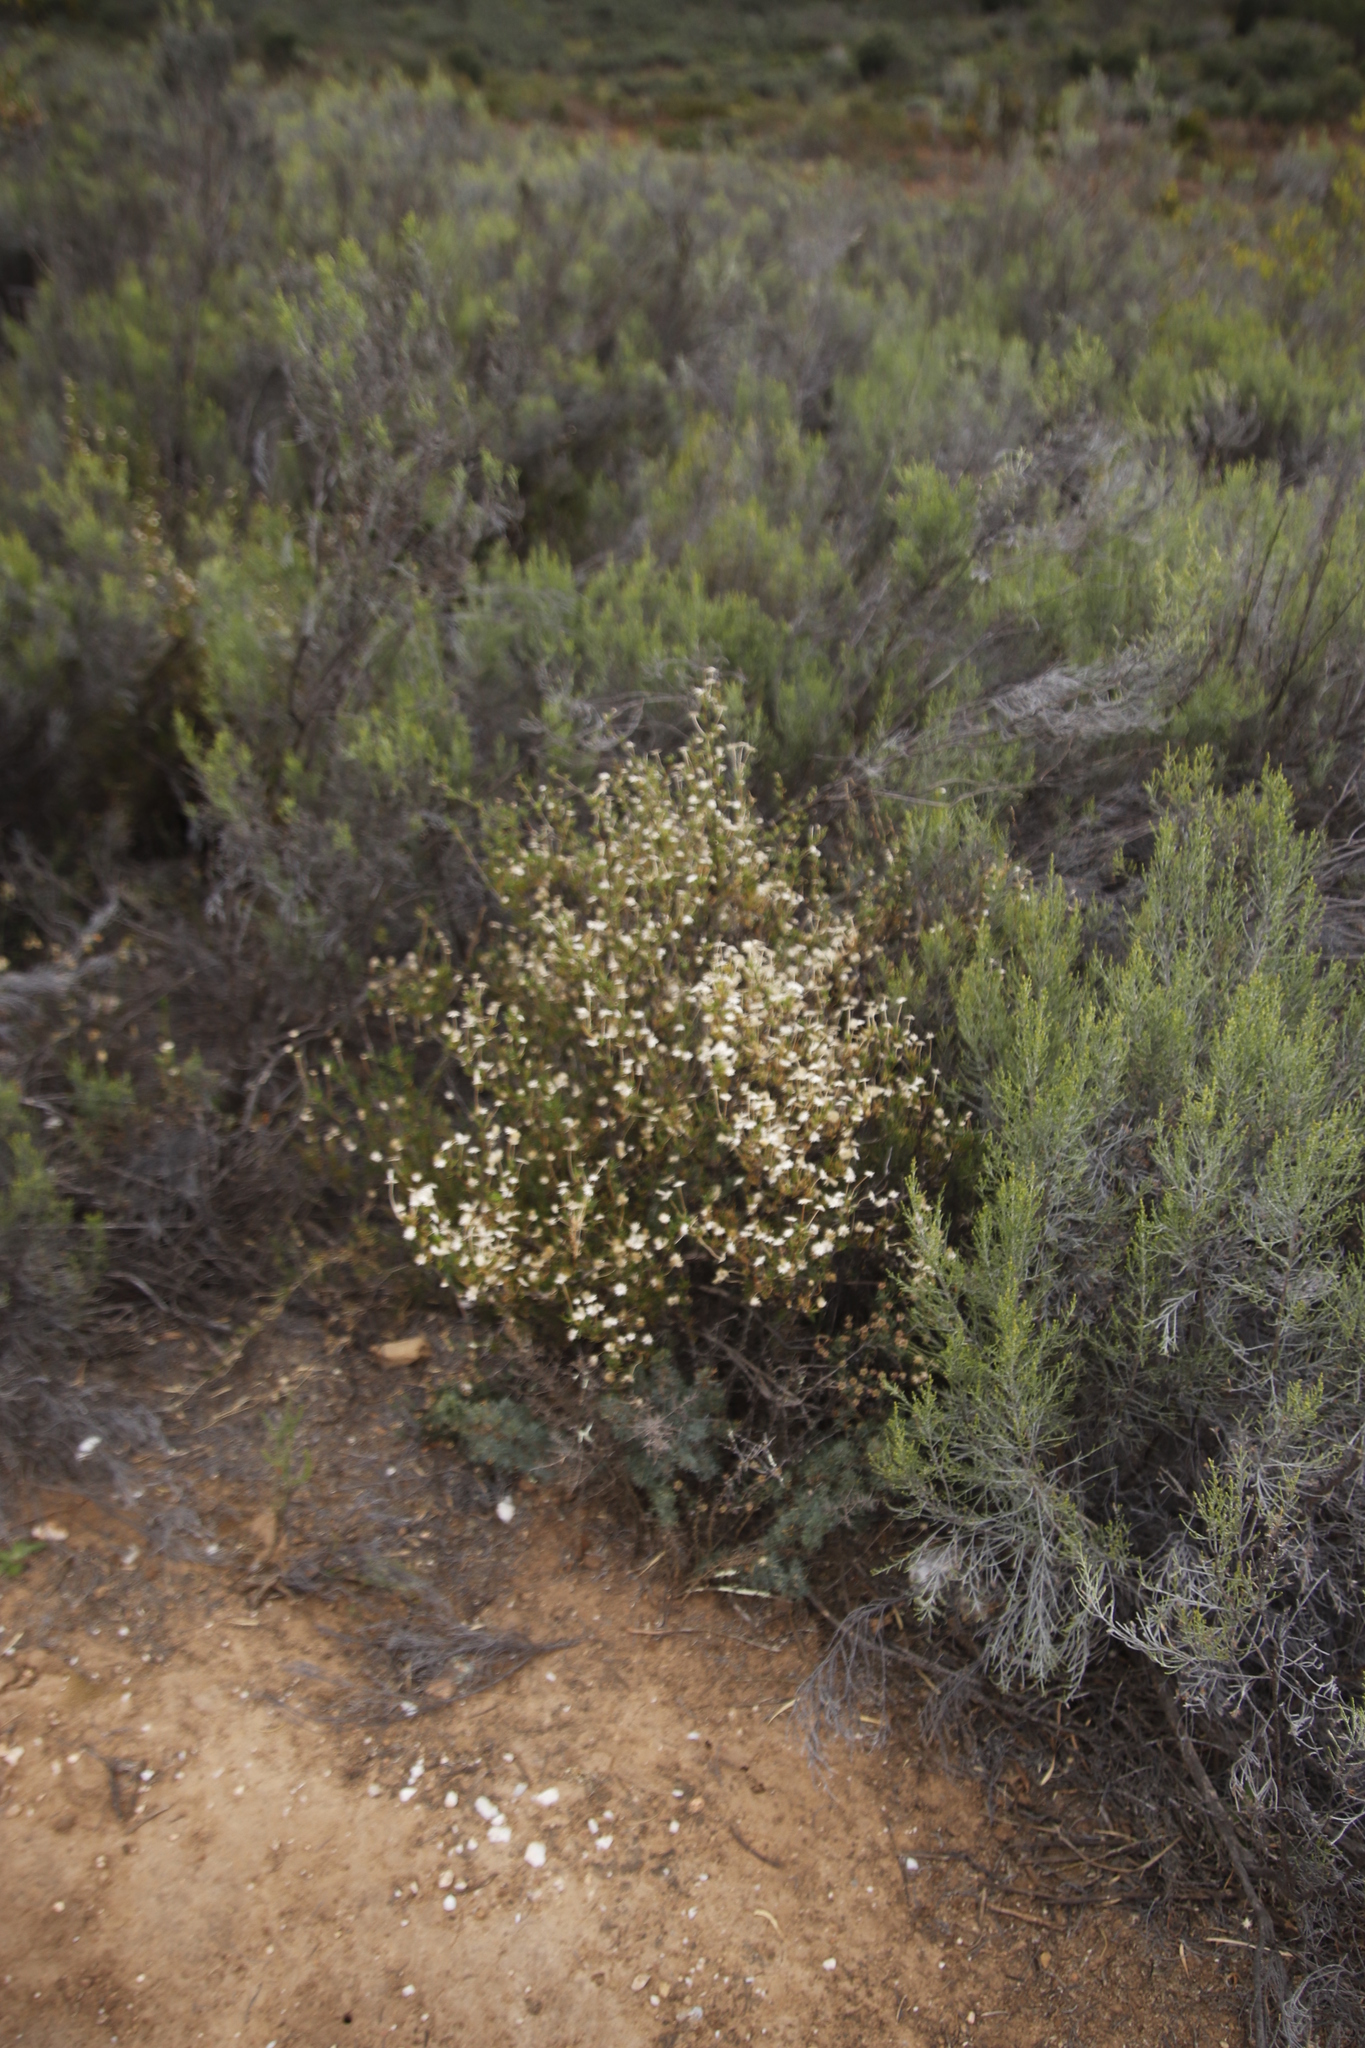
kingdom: Plantae
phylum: Tracheophyta
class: Magnoliopsida
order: Asterales
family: Asteraceae
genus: Dicerothamnus
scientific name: Dicerothamnus rhinocerotis
